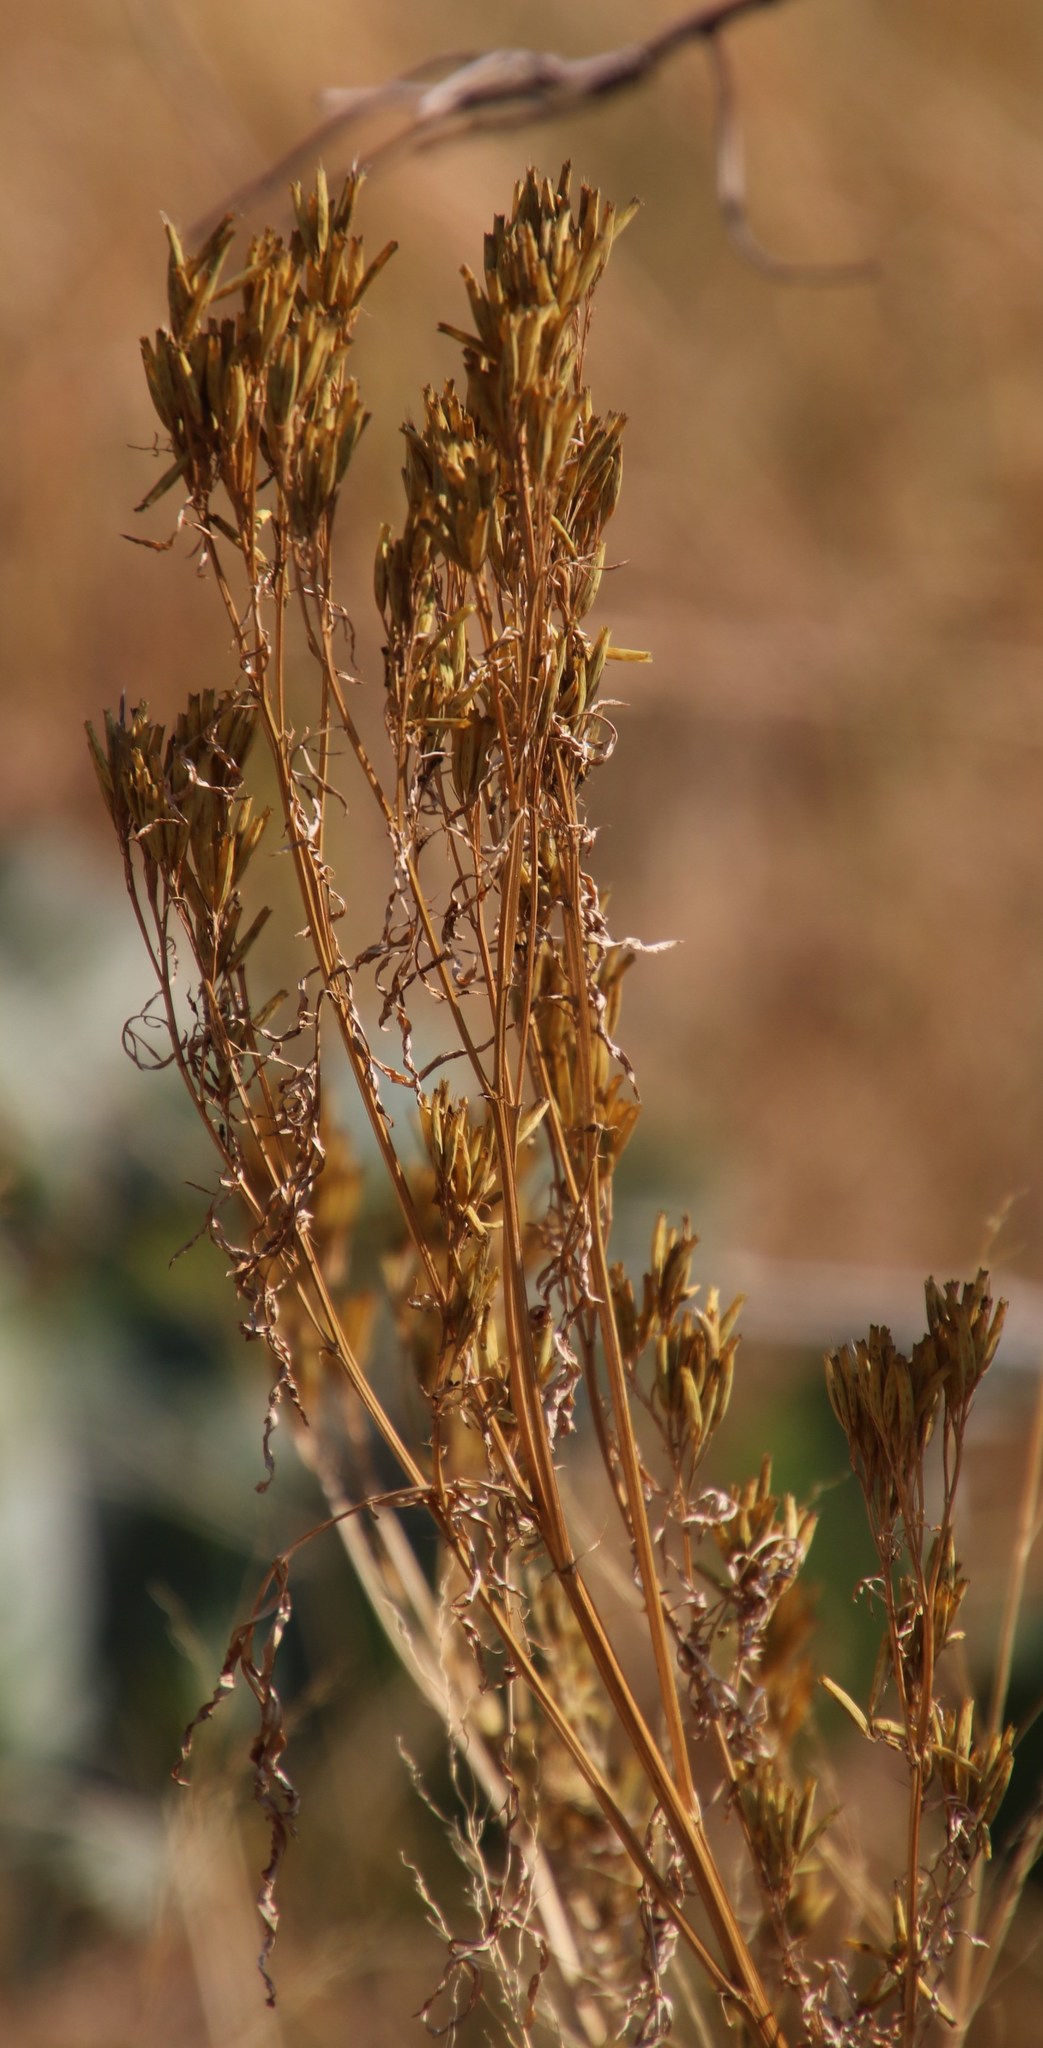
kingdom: Plantae
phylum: Tracheophyta
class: Magnoliopsida
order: Asterales
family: Asteraceae
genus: Tagetes
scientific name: Tagetes minuta
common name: Muster john henry
